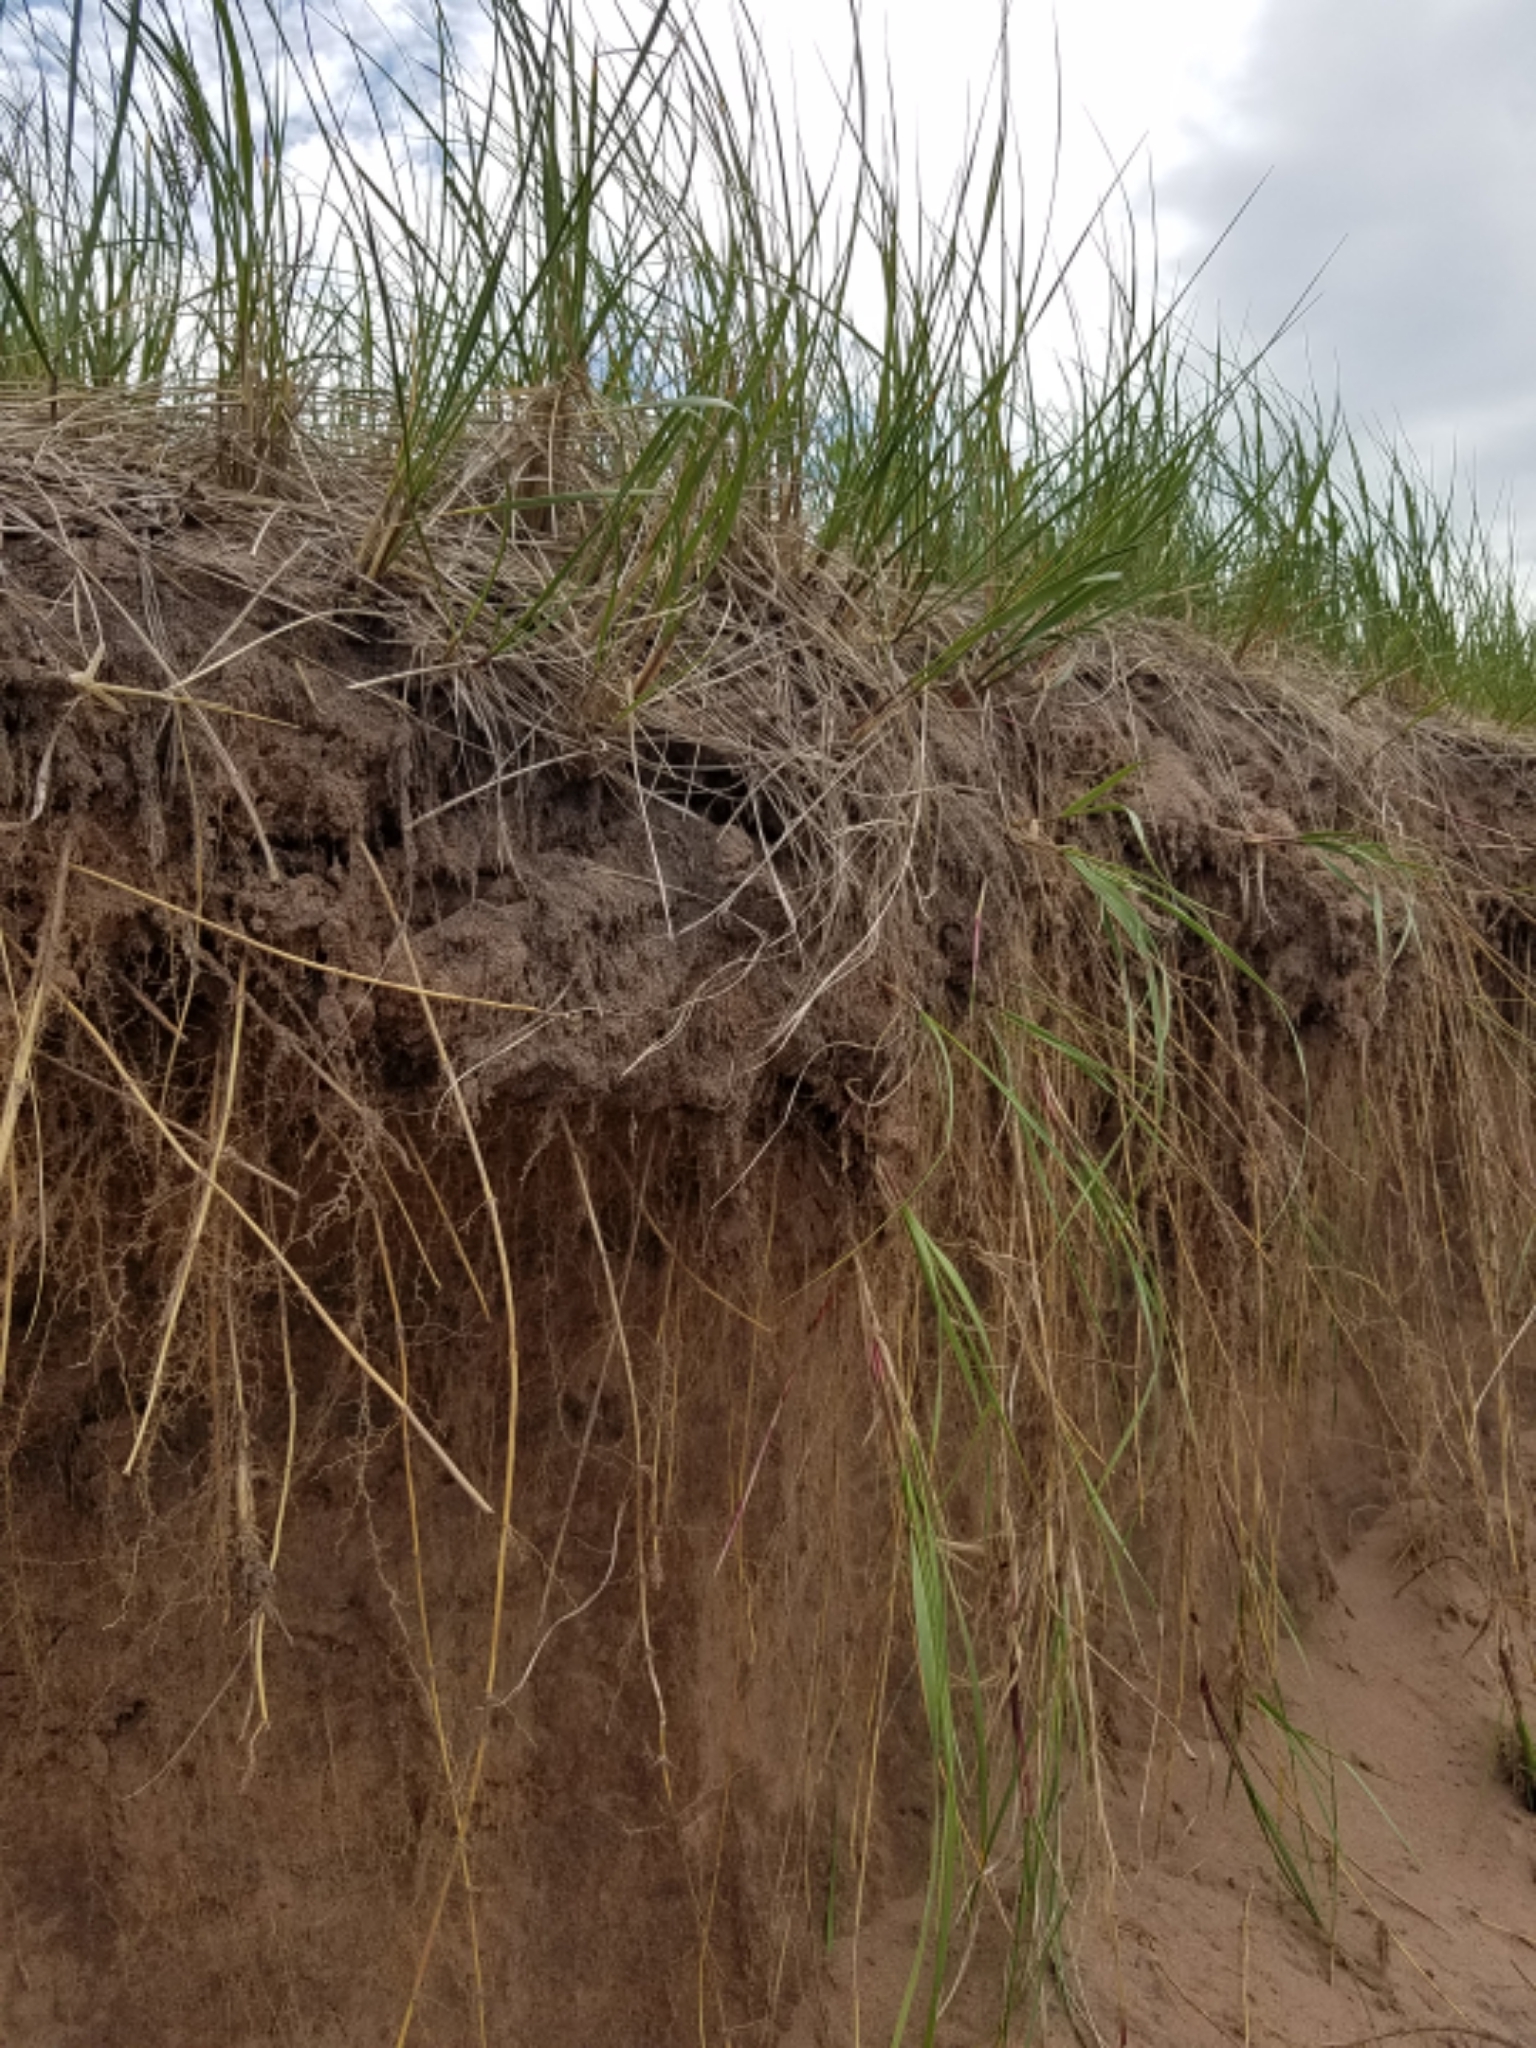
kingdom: Plantae
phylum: Tracheophyta
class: Liliopsida
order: Poales
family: Poaceae
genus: Calamagrostis
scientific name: Calamagrostis breviligulata
